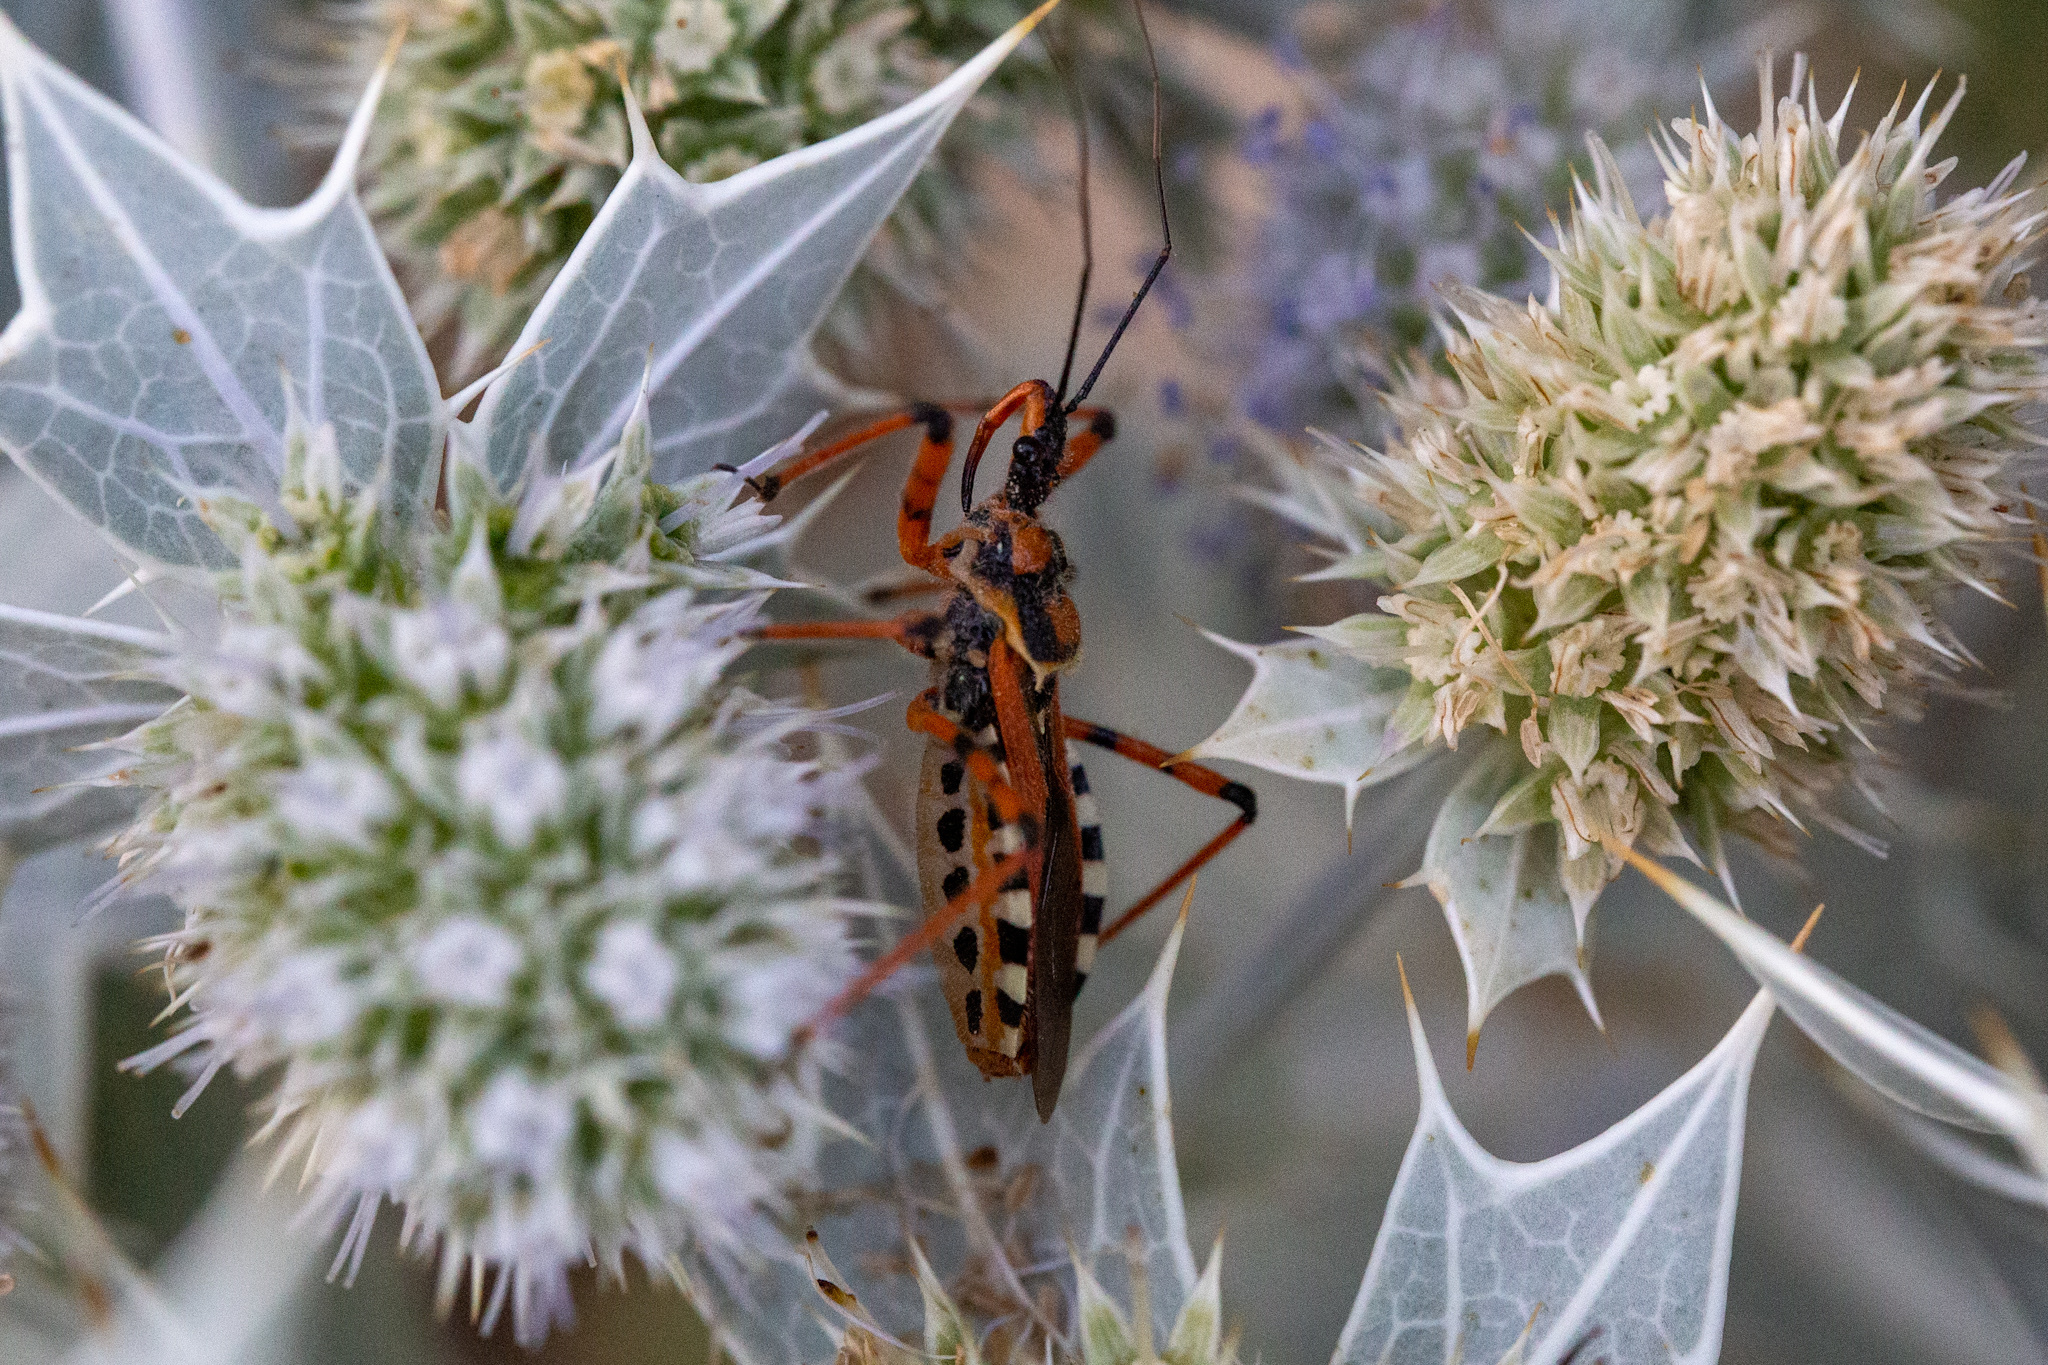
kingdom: Animalia
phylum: Arthropoda
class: Insecta
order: Hemiptera
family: Reduviidae
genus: Rhynocoris
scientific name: Rhynocoris punctiventris
